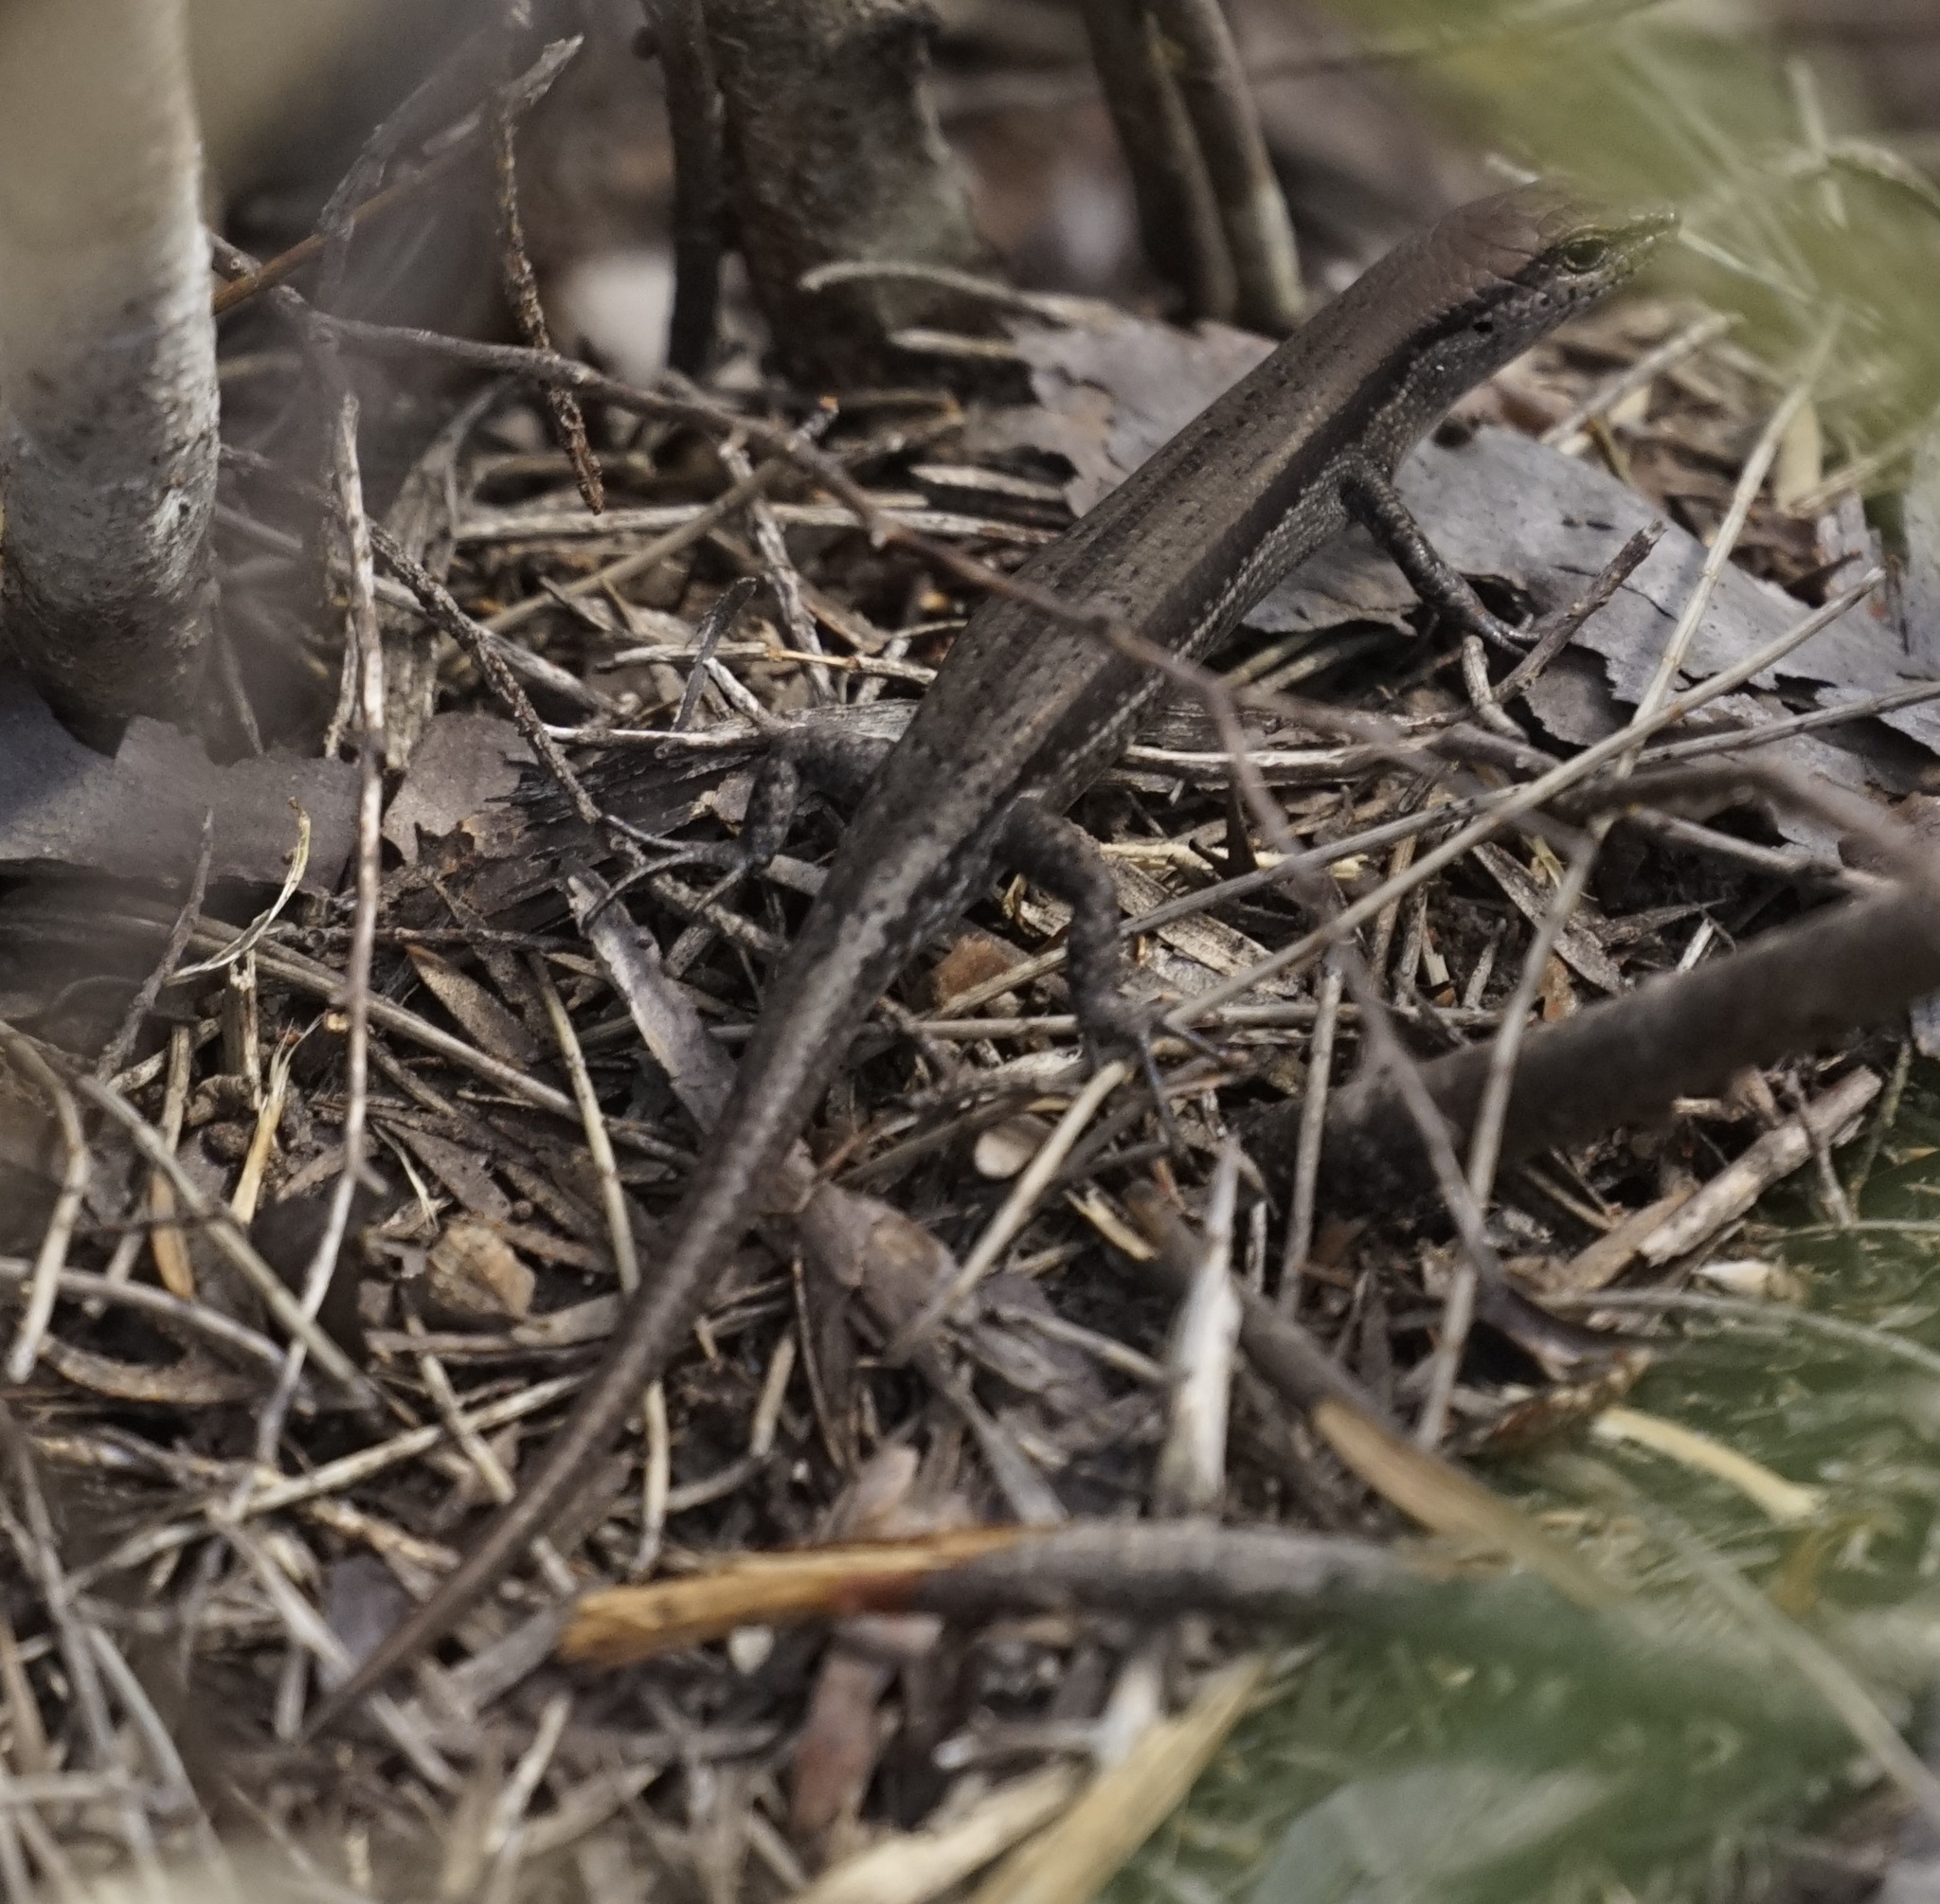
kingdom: Animalia
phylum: Chordata
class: Squamata
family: Scincidae
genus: Lampropholis
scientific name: Lampropholis guichenoti
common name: Garden skink
